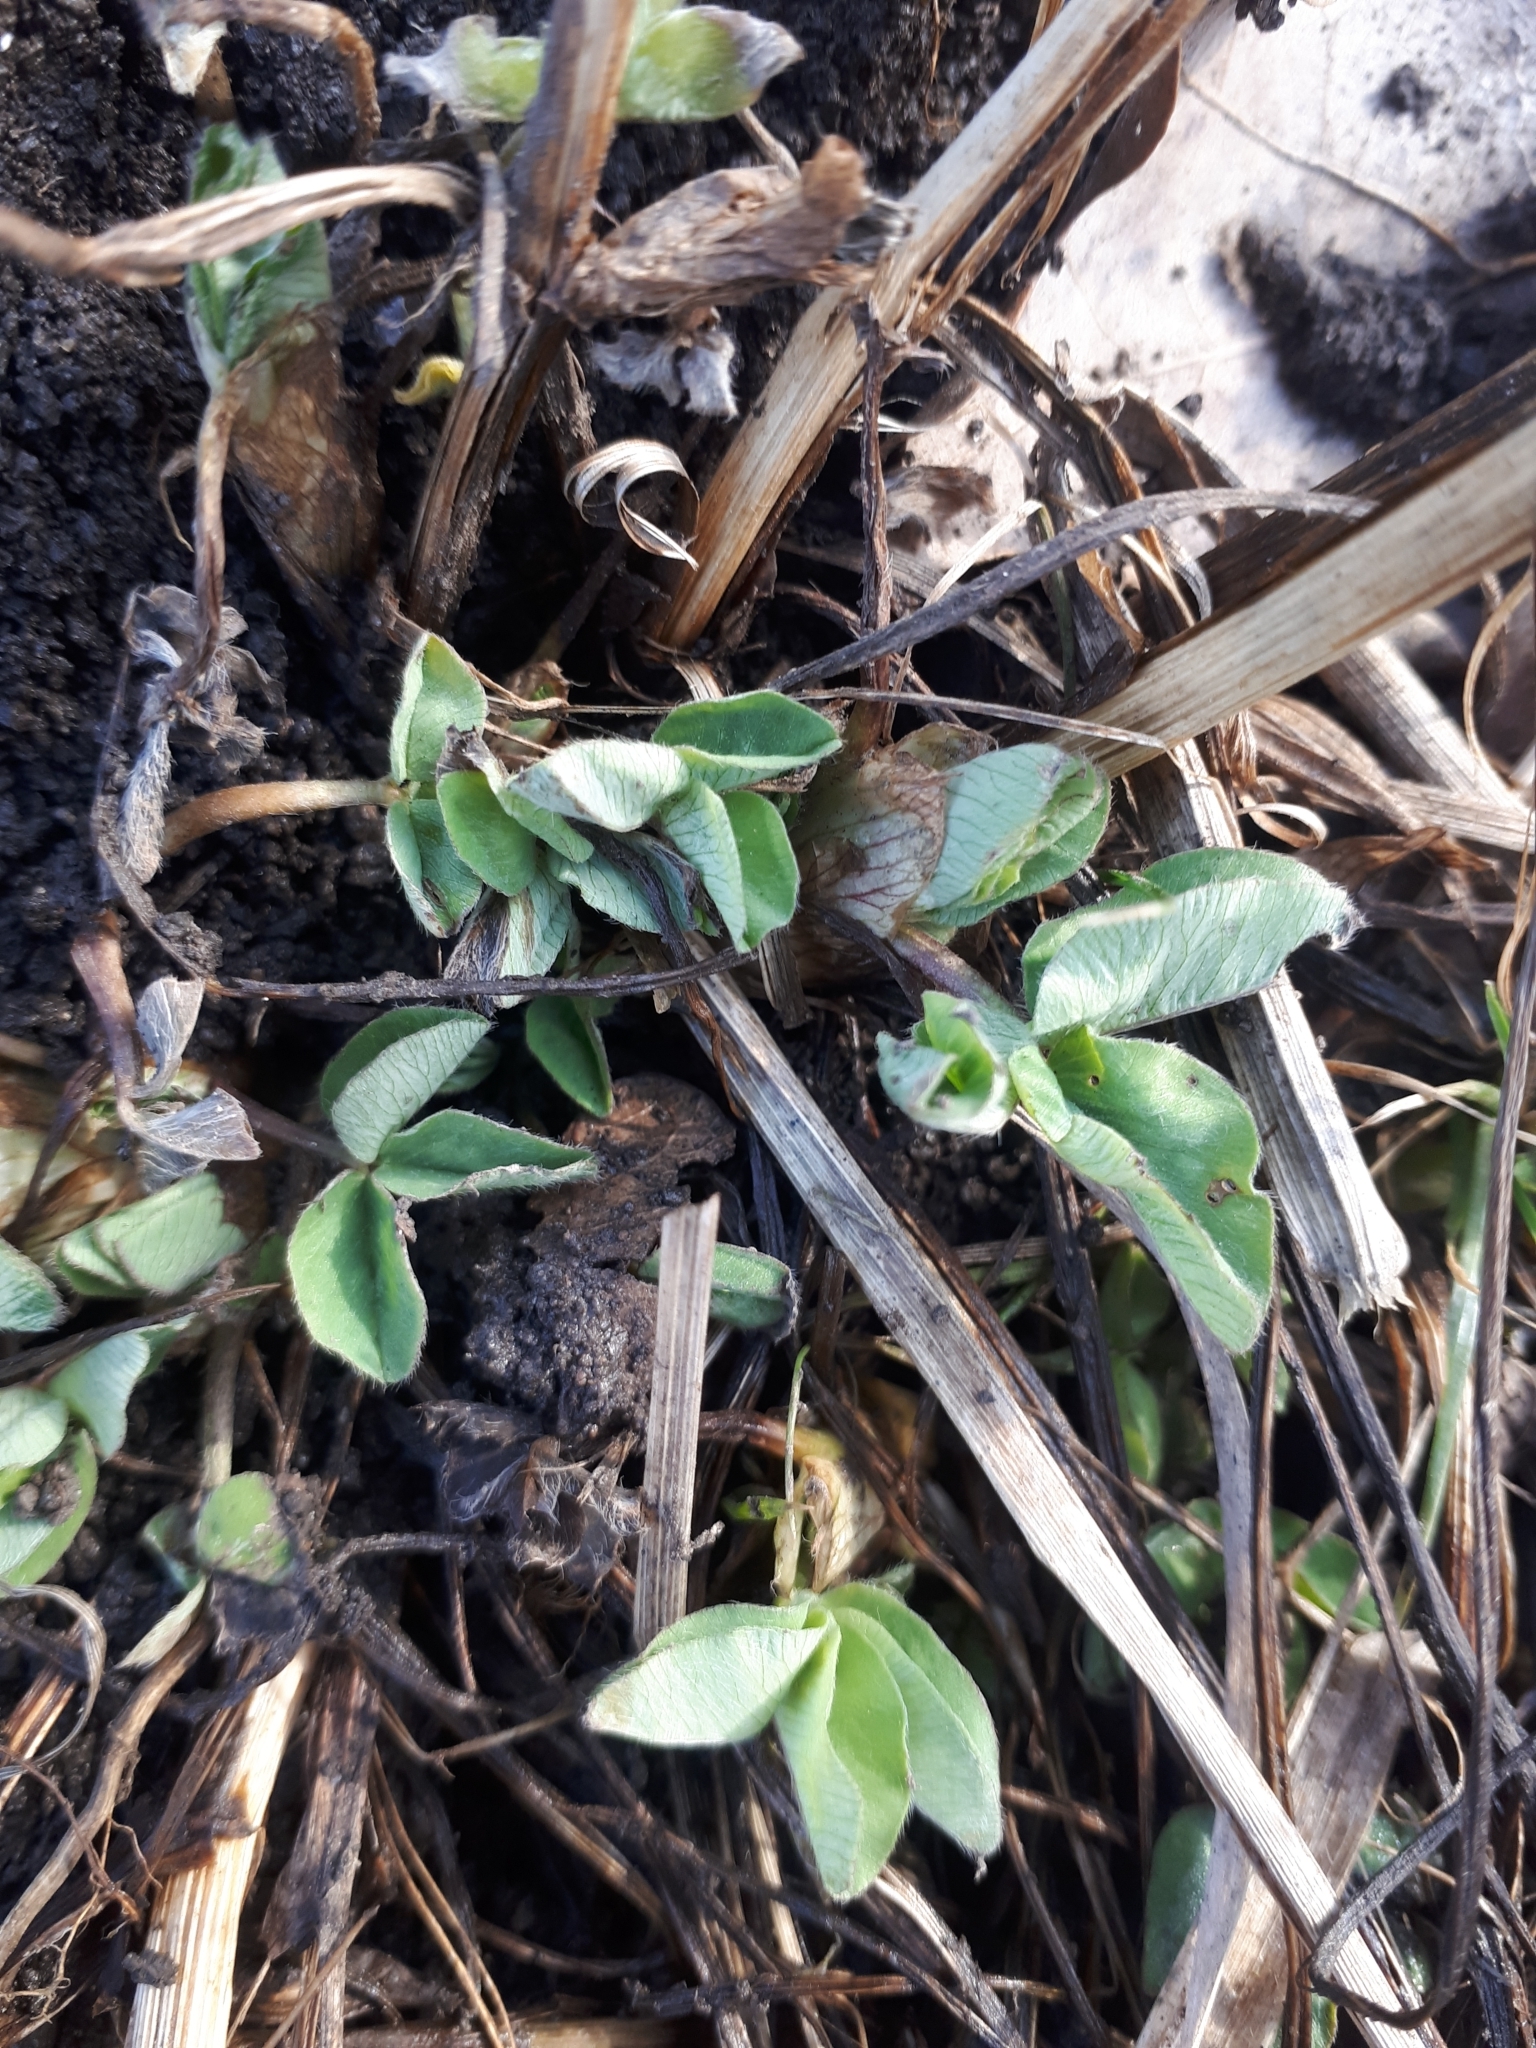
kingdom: Plantae
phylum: Tracheophyta
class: Magnoliopsida
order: Fabales
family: Fabaceae
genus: Trifolium
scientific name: Trifolium pratense
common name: Red clover
